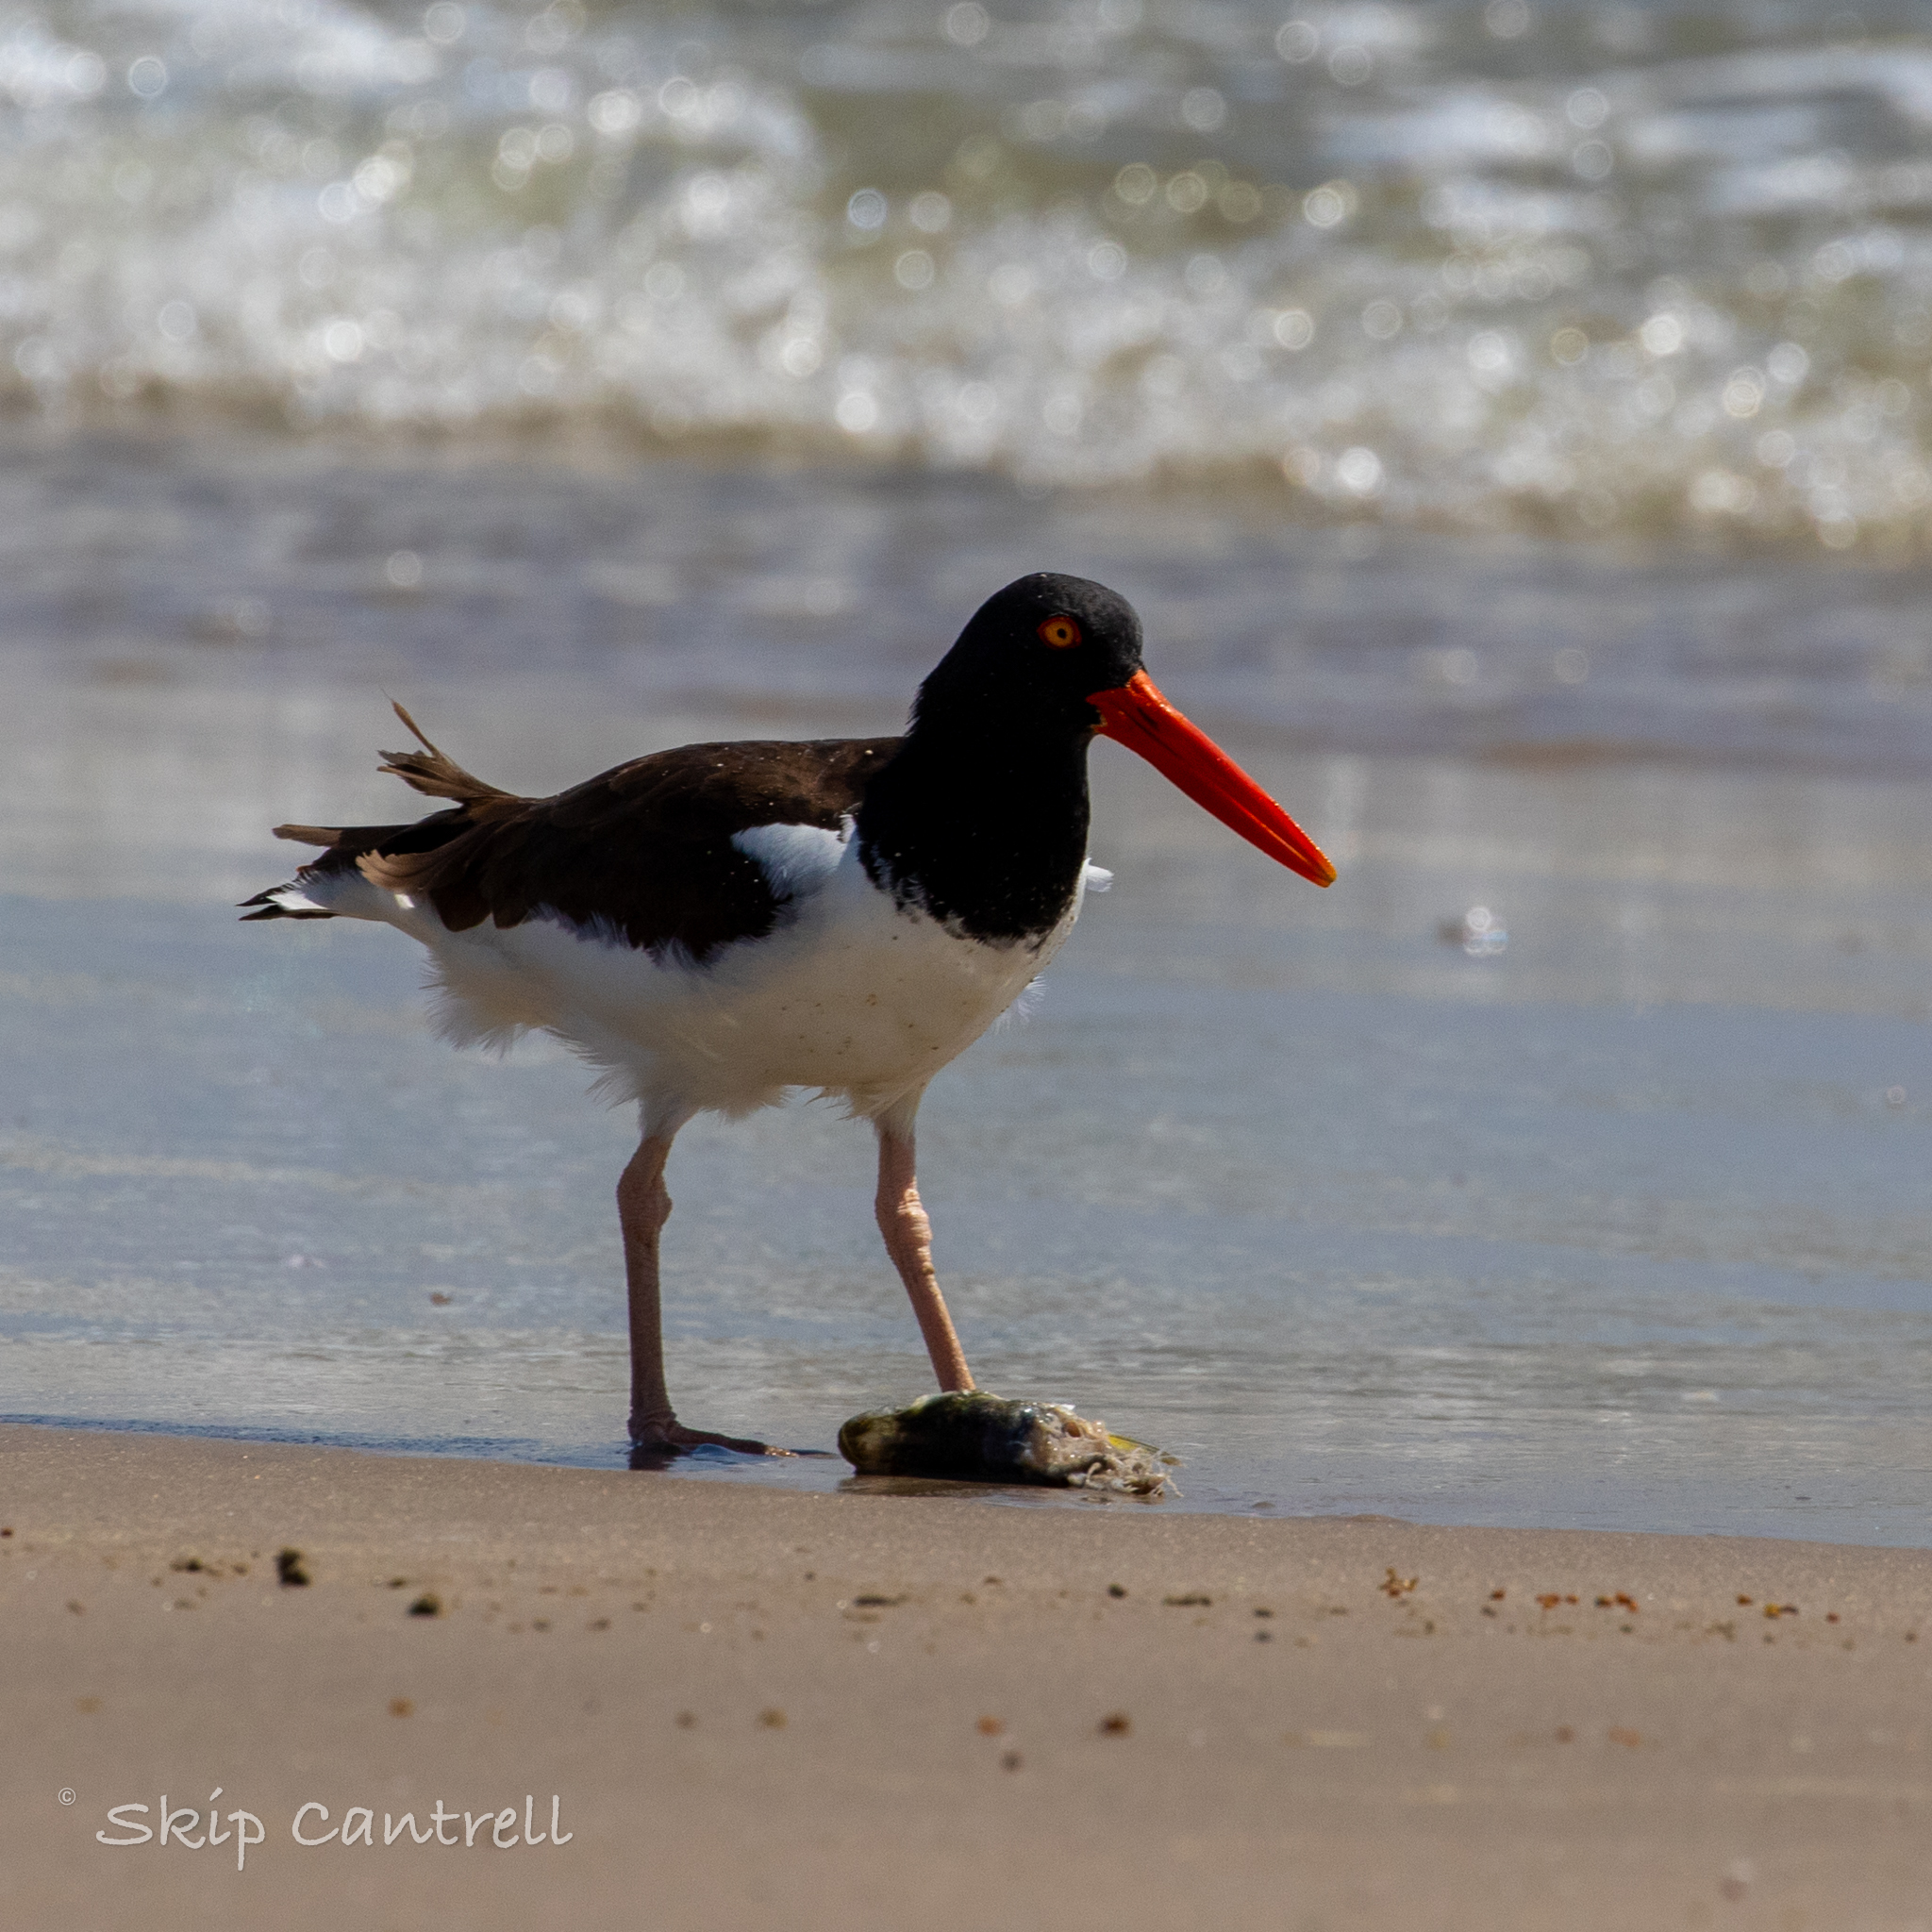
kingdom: Animalia
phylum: Chordata
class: Aves
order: Charadriiformes
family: Haematopodidae
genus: Haematopus
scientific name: Haematopus palliatus
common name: American oystercatcher
